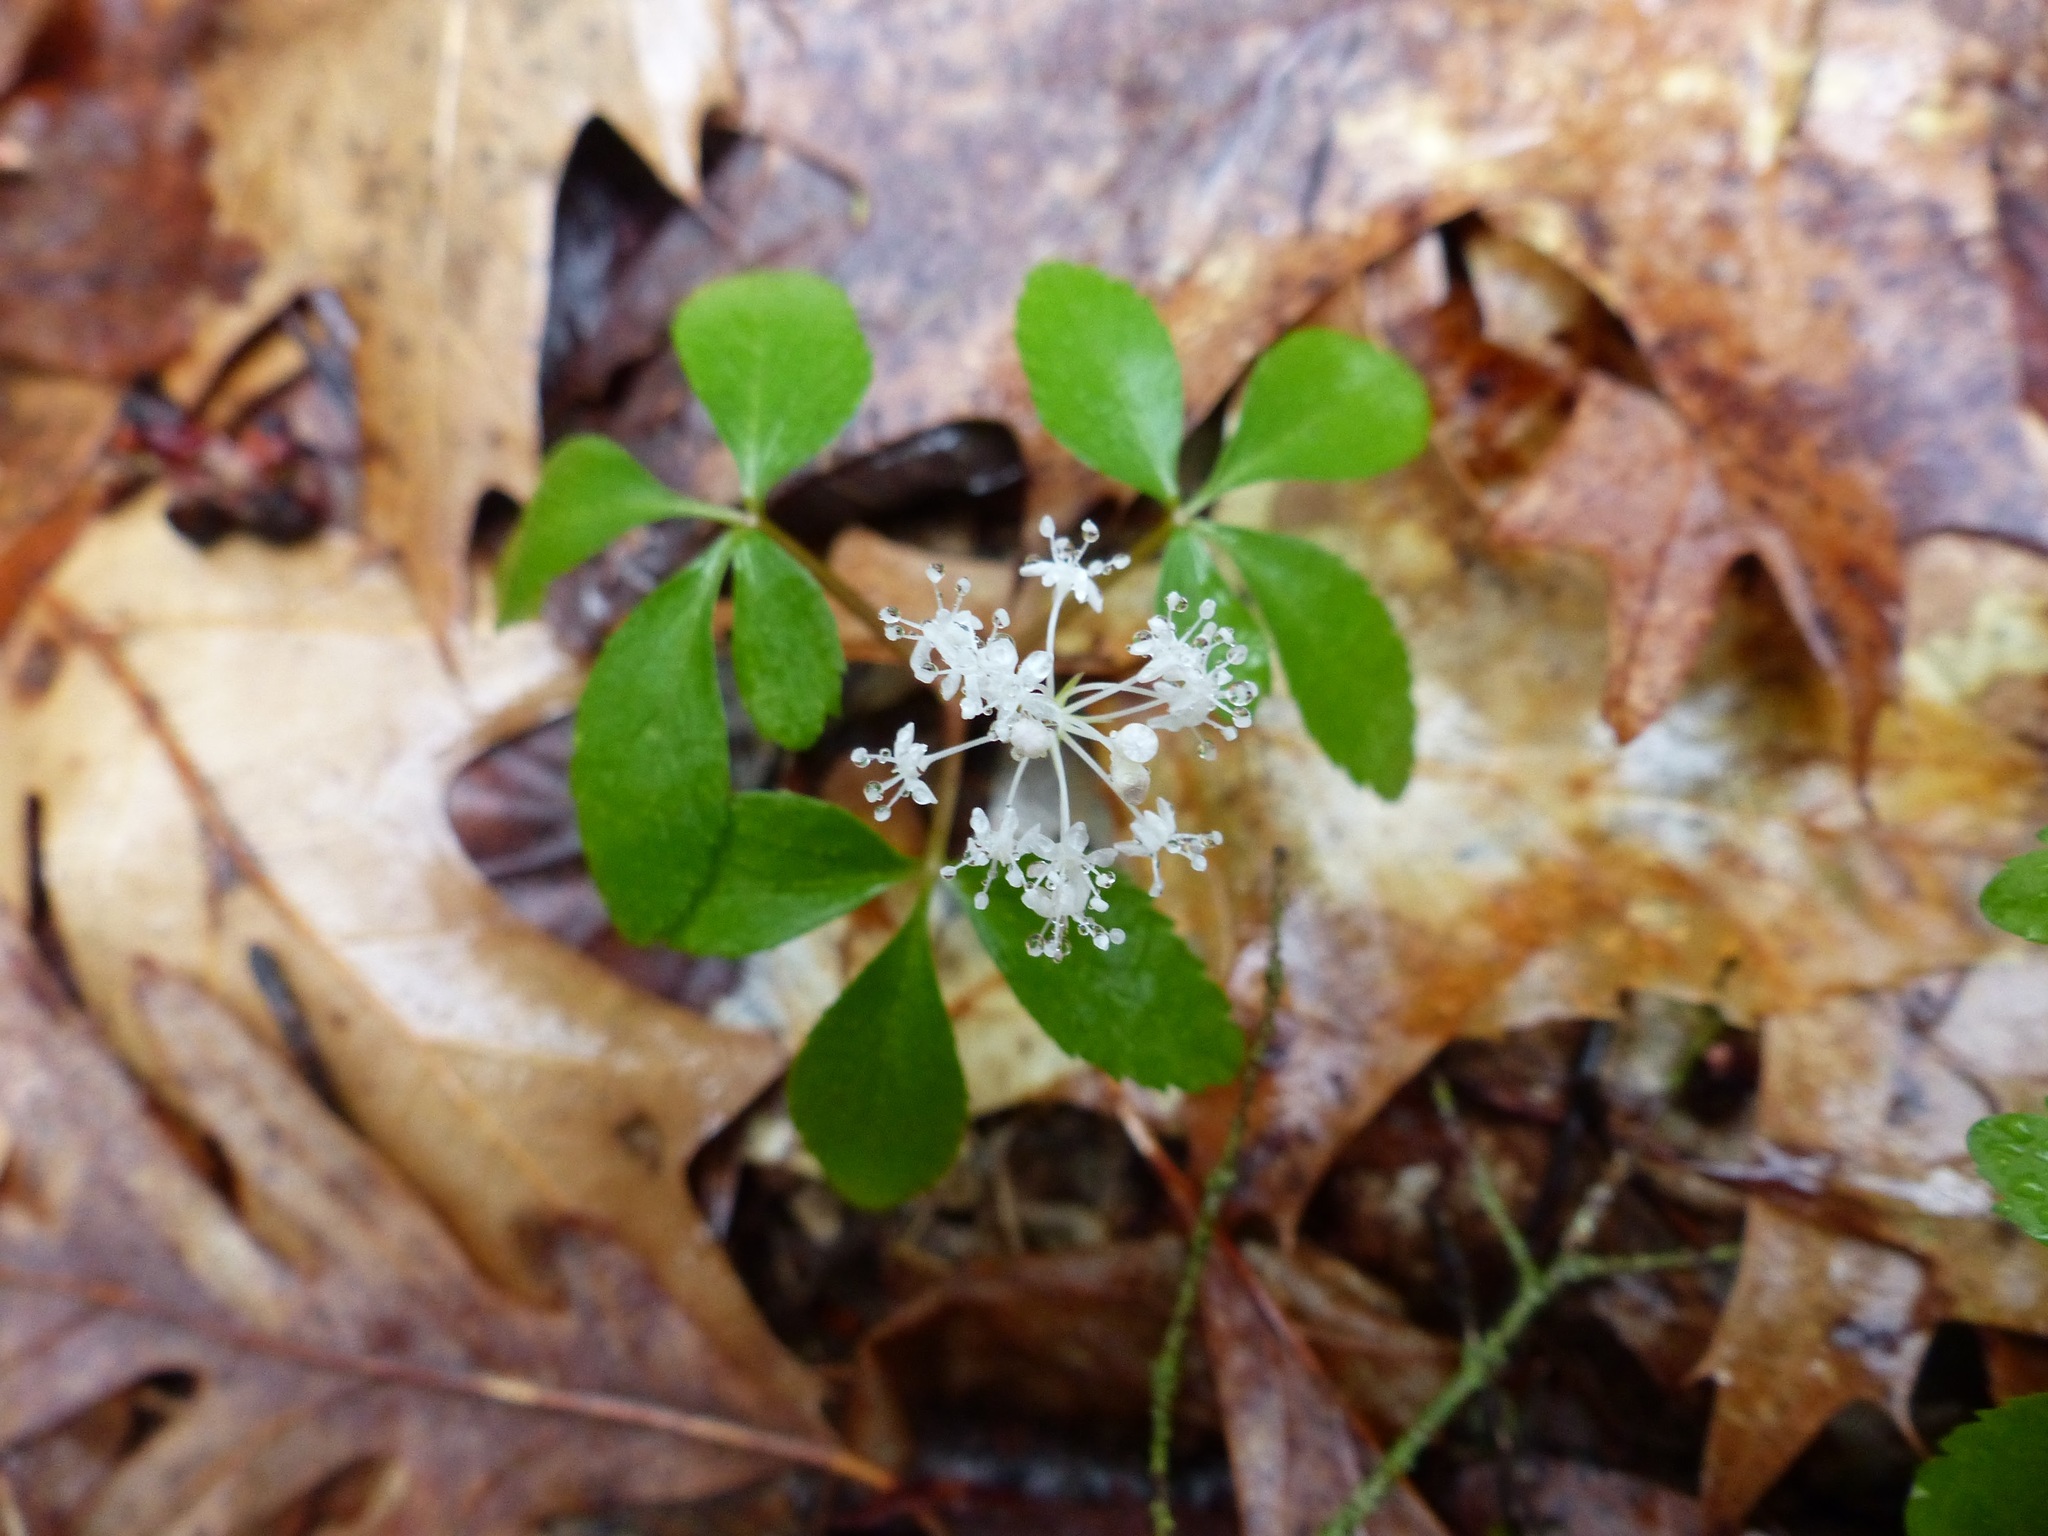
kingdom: Plantae
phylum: Tracheophyta
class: Magnoliopsida
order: Apiales
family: Araliaceae
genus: Panax
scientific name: Panax trifolius
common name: Dwarf ginseng
